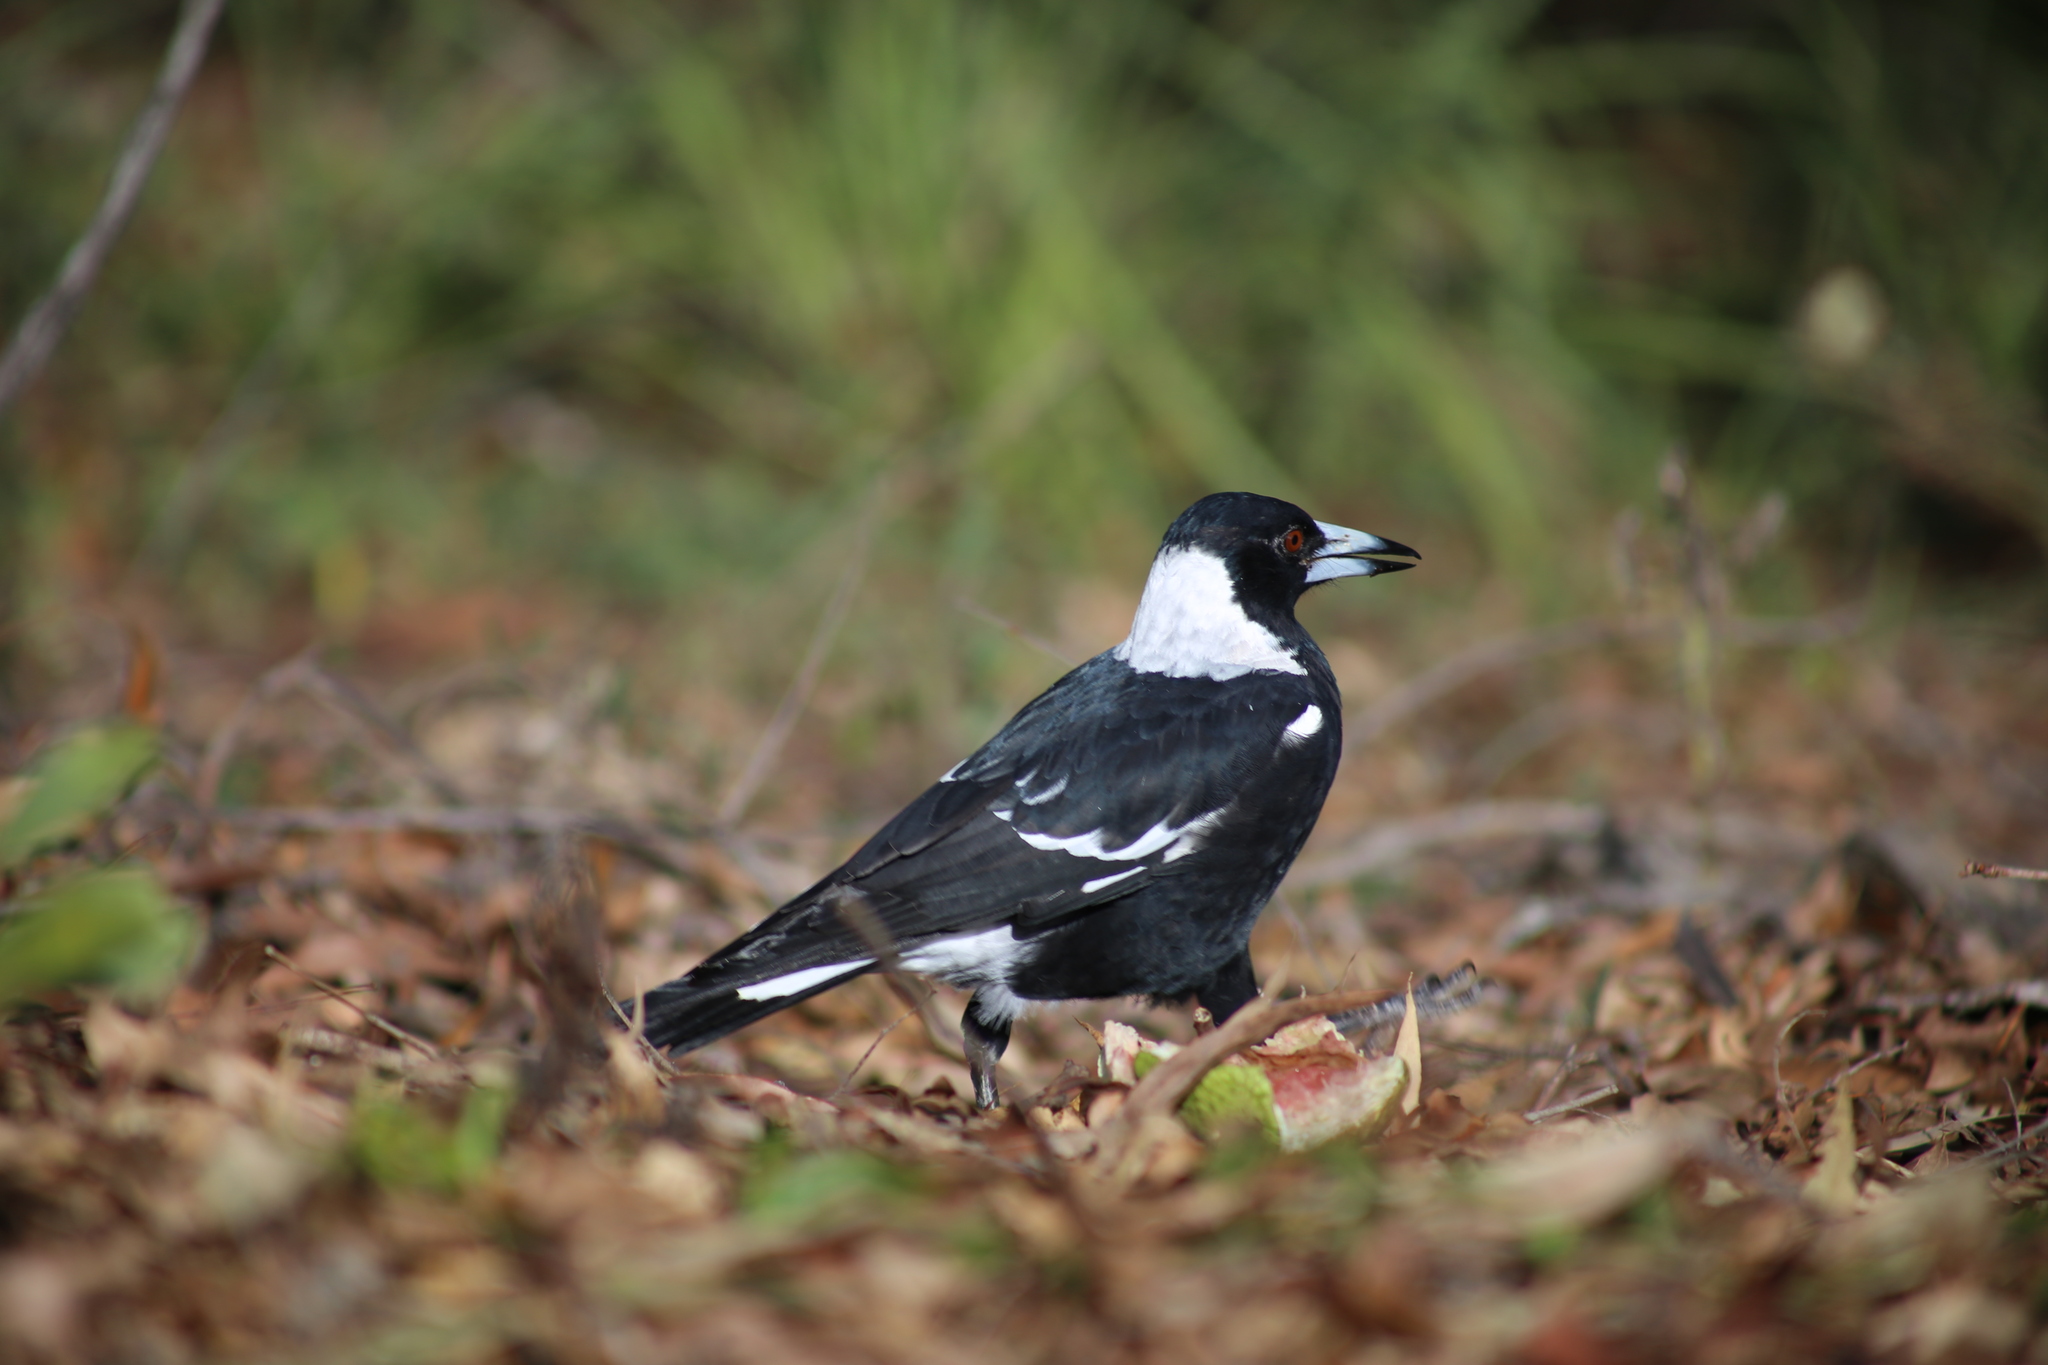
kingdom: Animalia
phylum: Chordata
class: Aves
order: Passeriformes
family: Cracticidae
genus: Gymnorhina
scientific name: Gymnorhina tibicen
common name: Australian magpie
